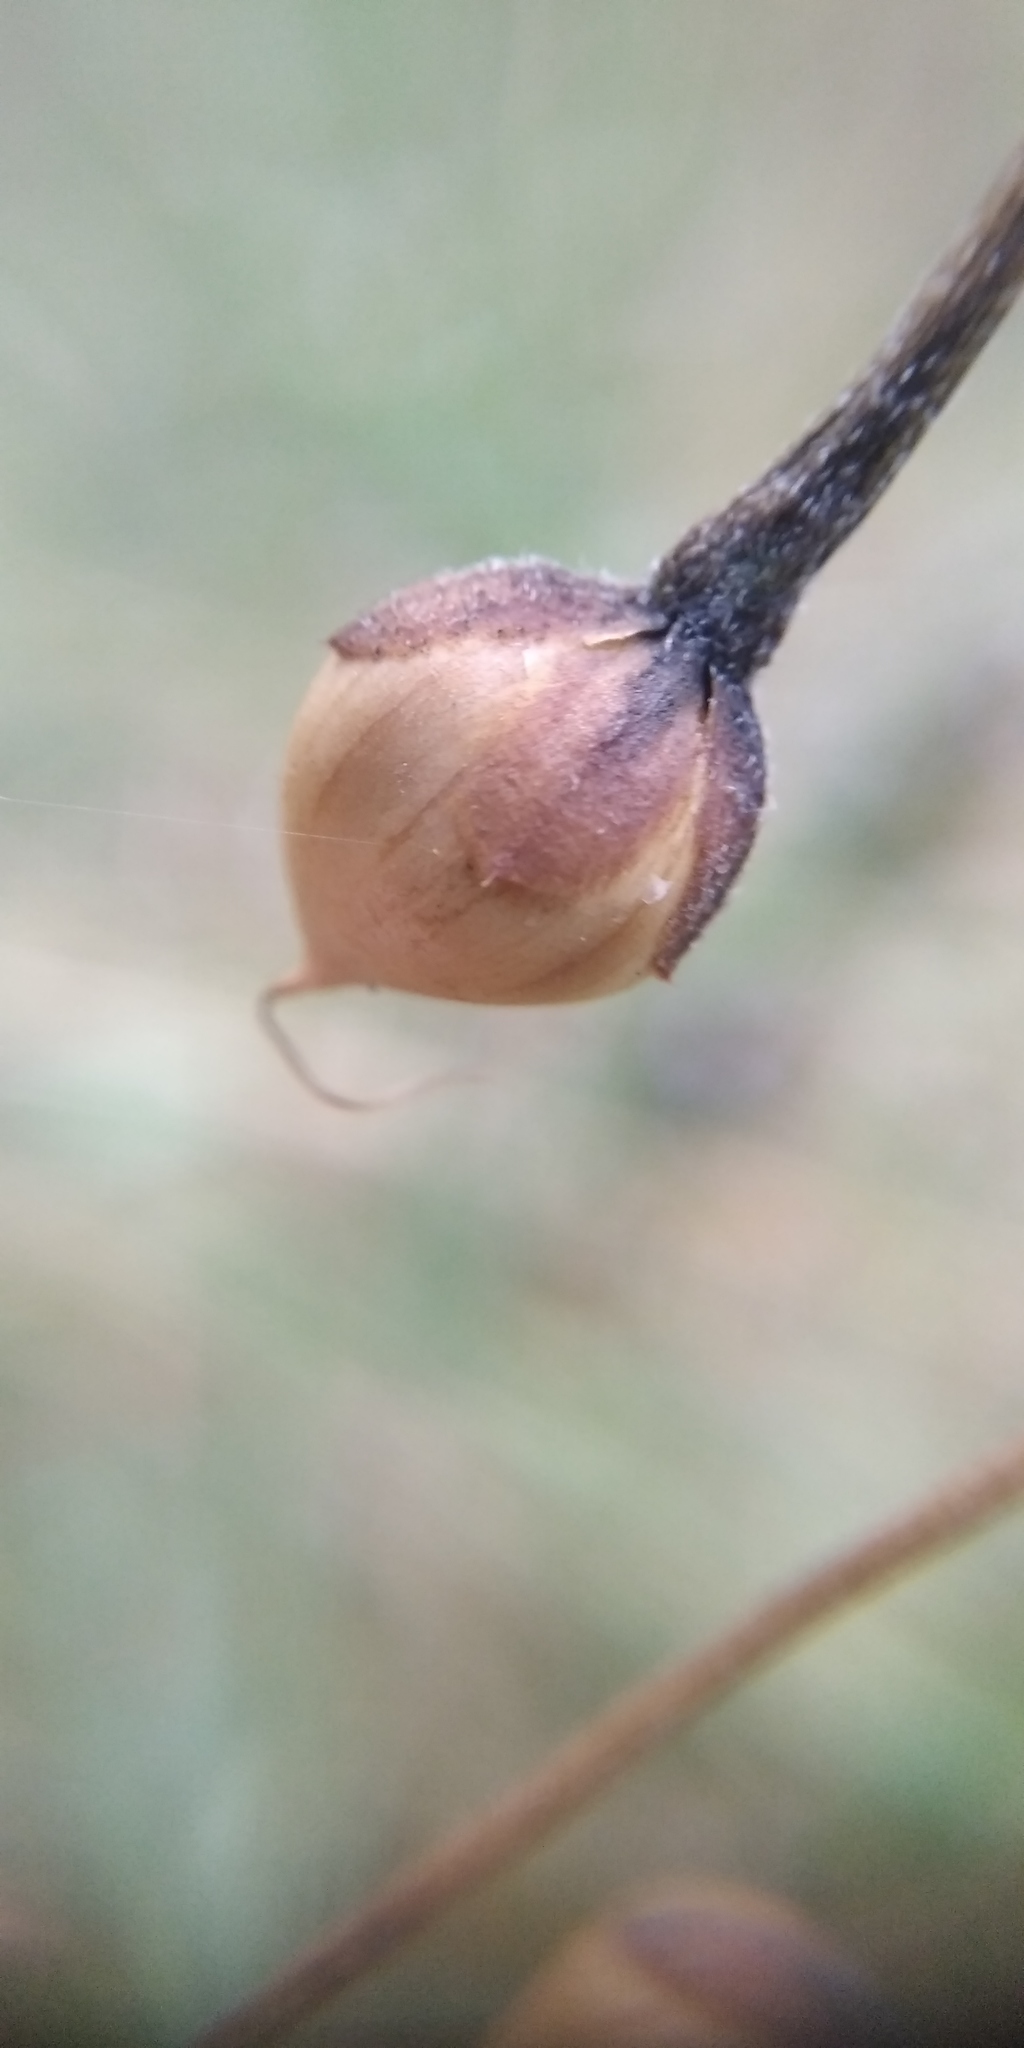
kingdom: Plantae
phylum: Tracheophyta
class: Magnoliopsida
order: Solanales
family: Convolvulaceae
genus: Convolvulus
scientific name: Convolvulus arvensis
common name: Field bindweed
